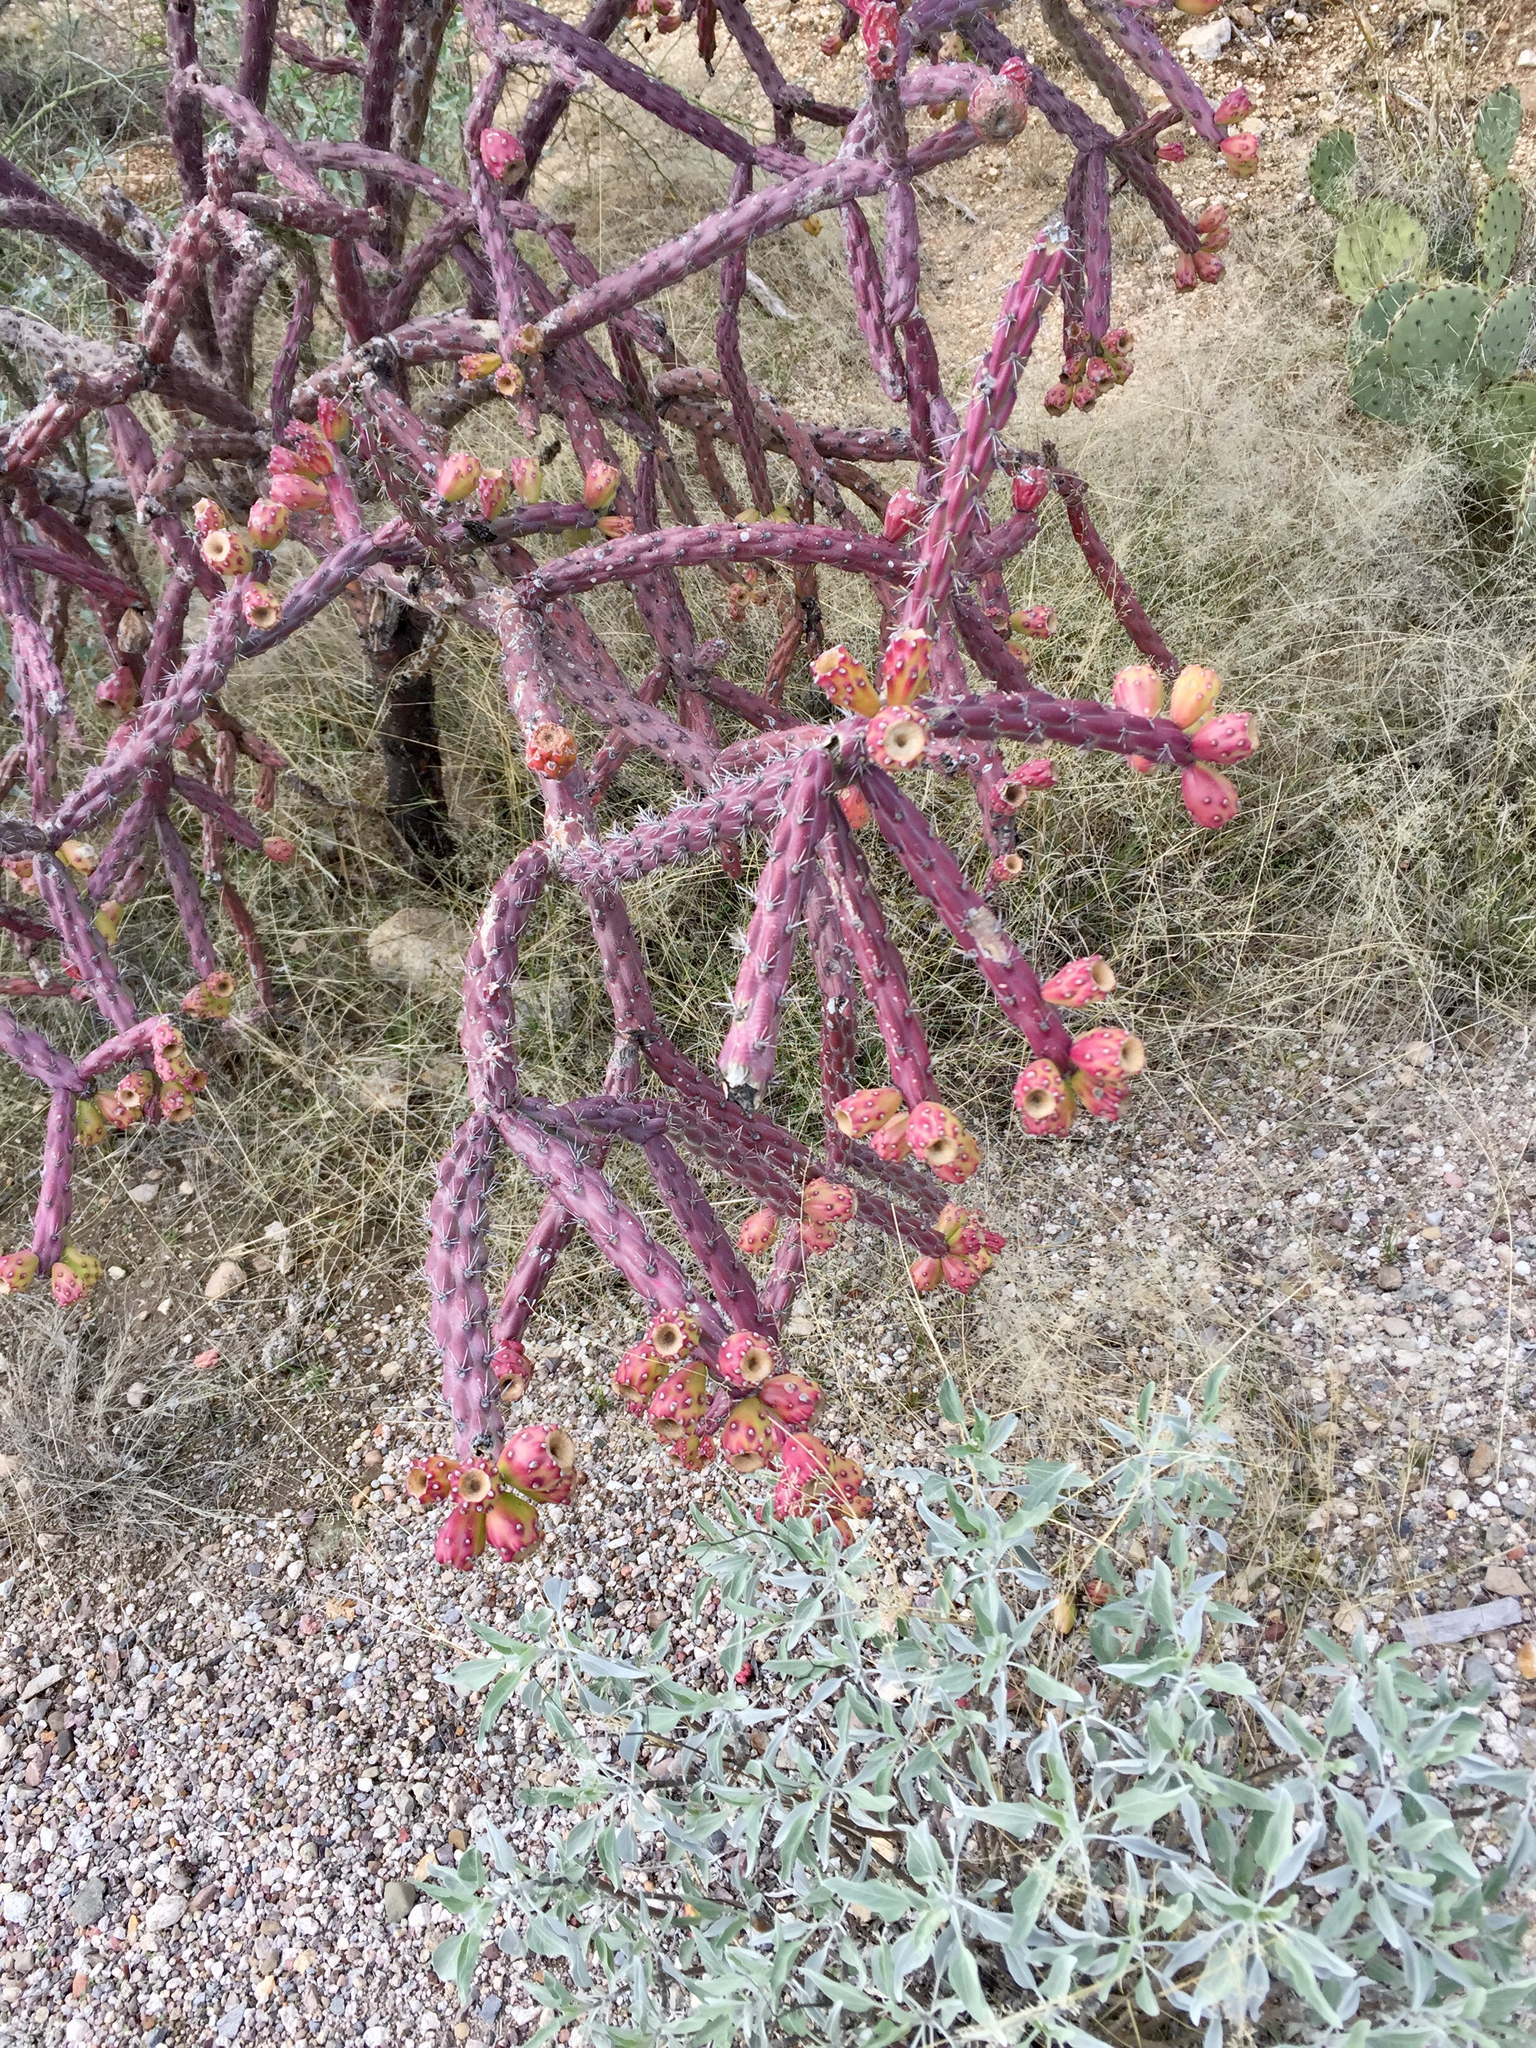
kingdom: Plantae
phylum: Tracheophyta
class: Magnoliopsida
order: Caryophyllales
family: Cactaceae
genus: Cylindropuntia
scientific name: Cylindropuntia thurberi
